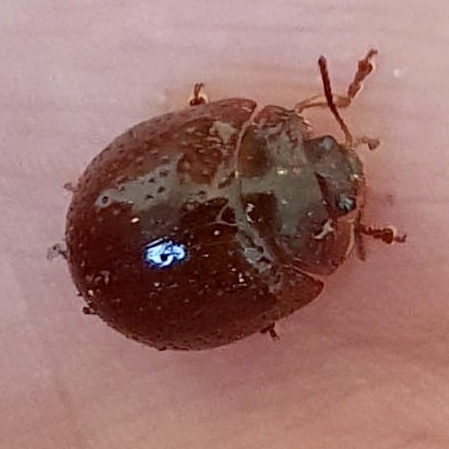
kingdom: Animalia
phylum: Arthropoda
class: Insecta
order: Coleoptera
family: Chrysomelidae
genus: Dicranosterna
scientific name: Dicranosterna
